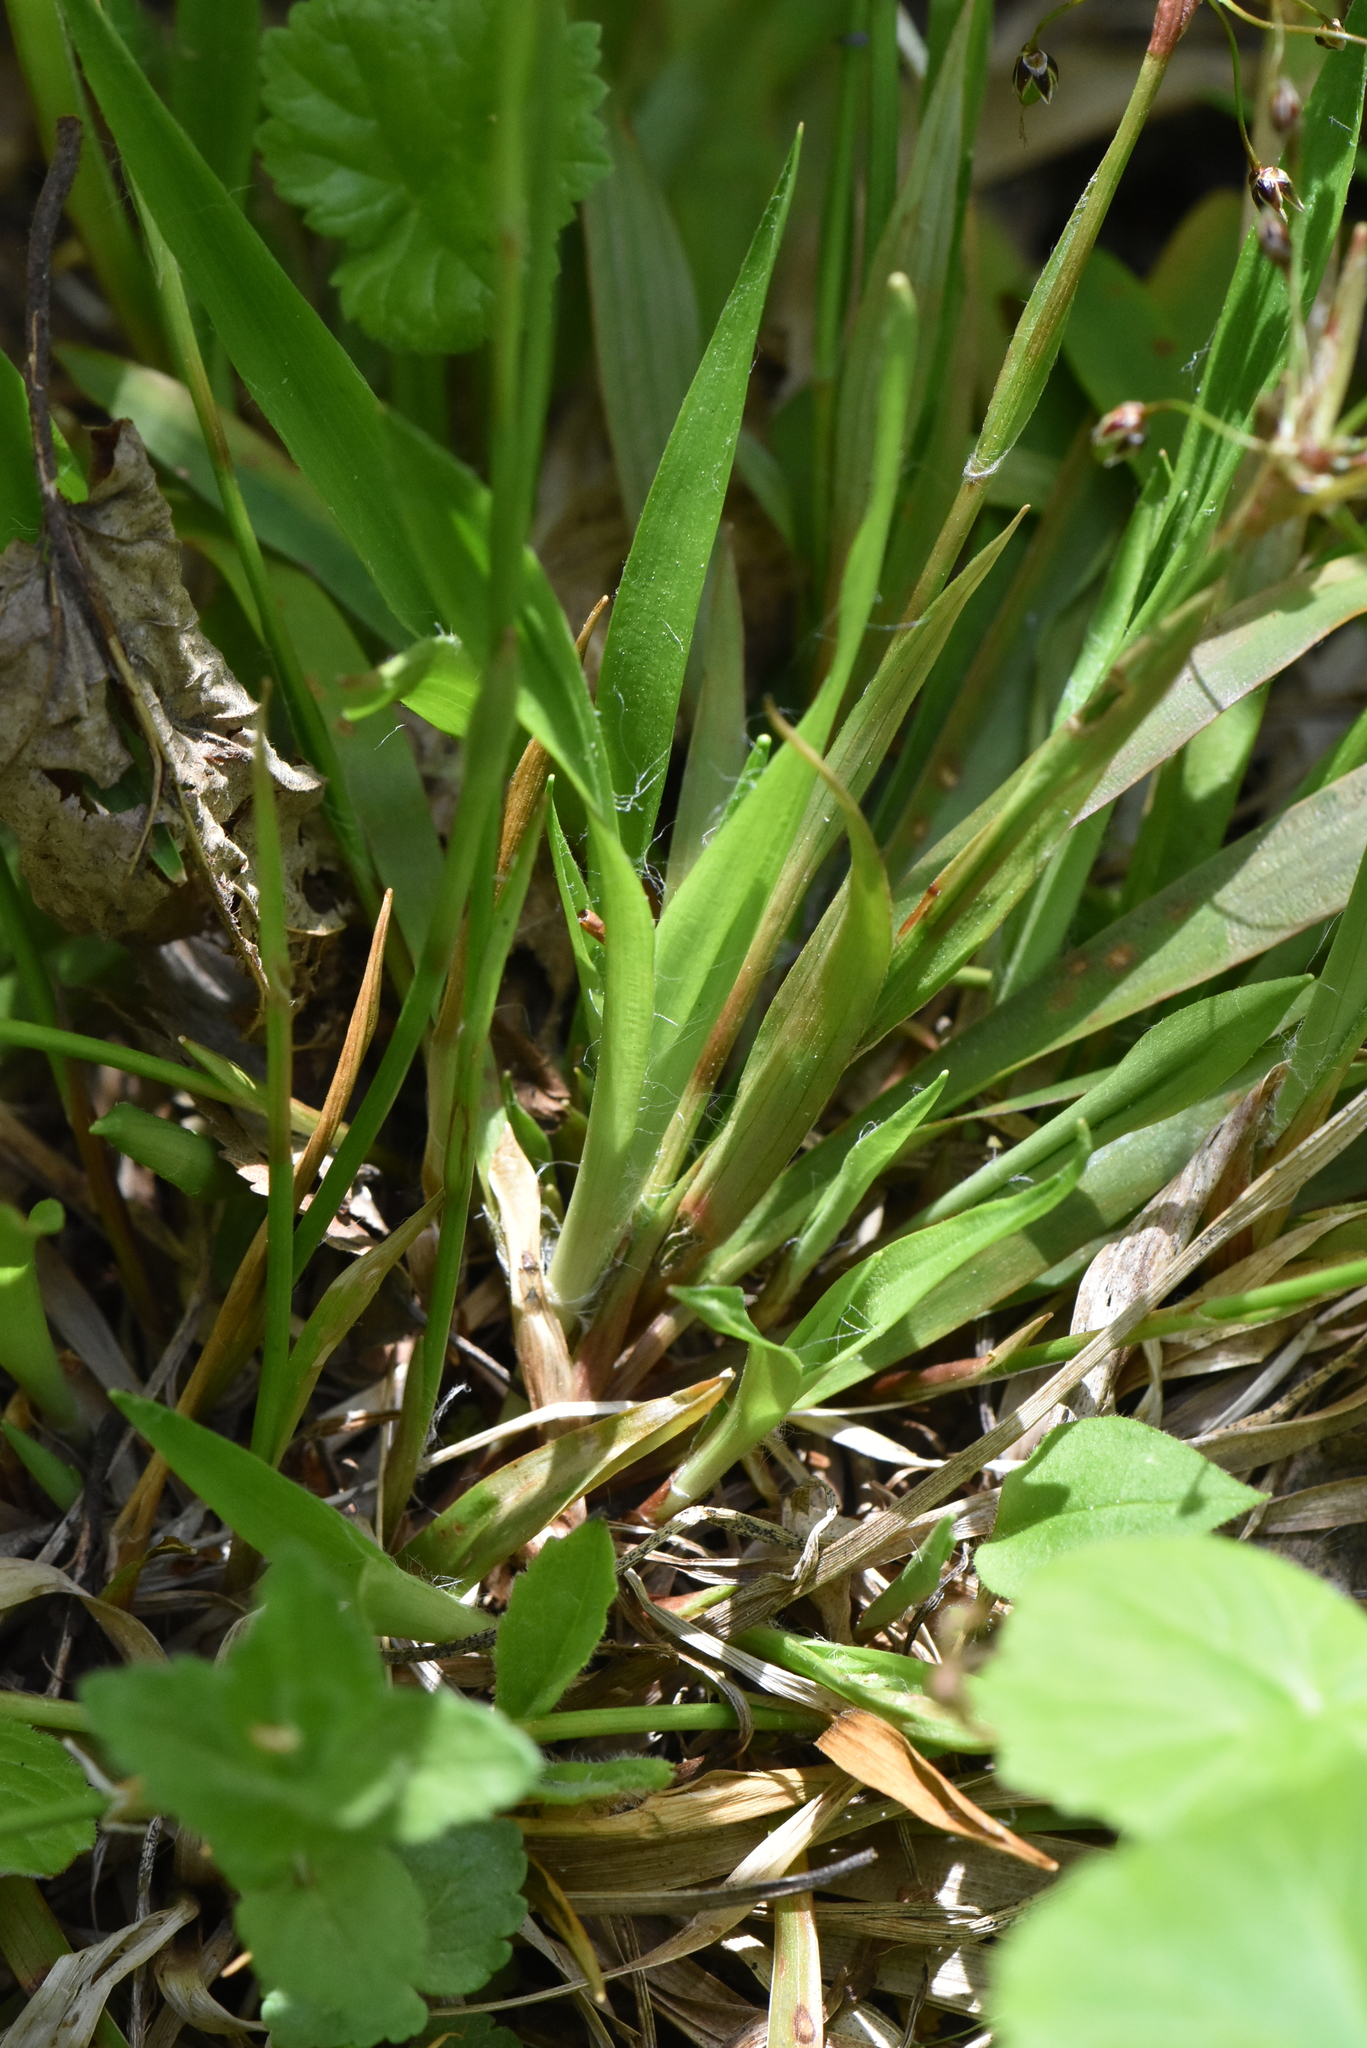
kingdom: Plantae
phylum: Tracheophyta
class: Liliopsida
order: Poales
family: Juncaceae
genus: Luzula
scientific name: Luzula pilosa
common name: Hairy wood-rush
